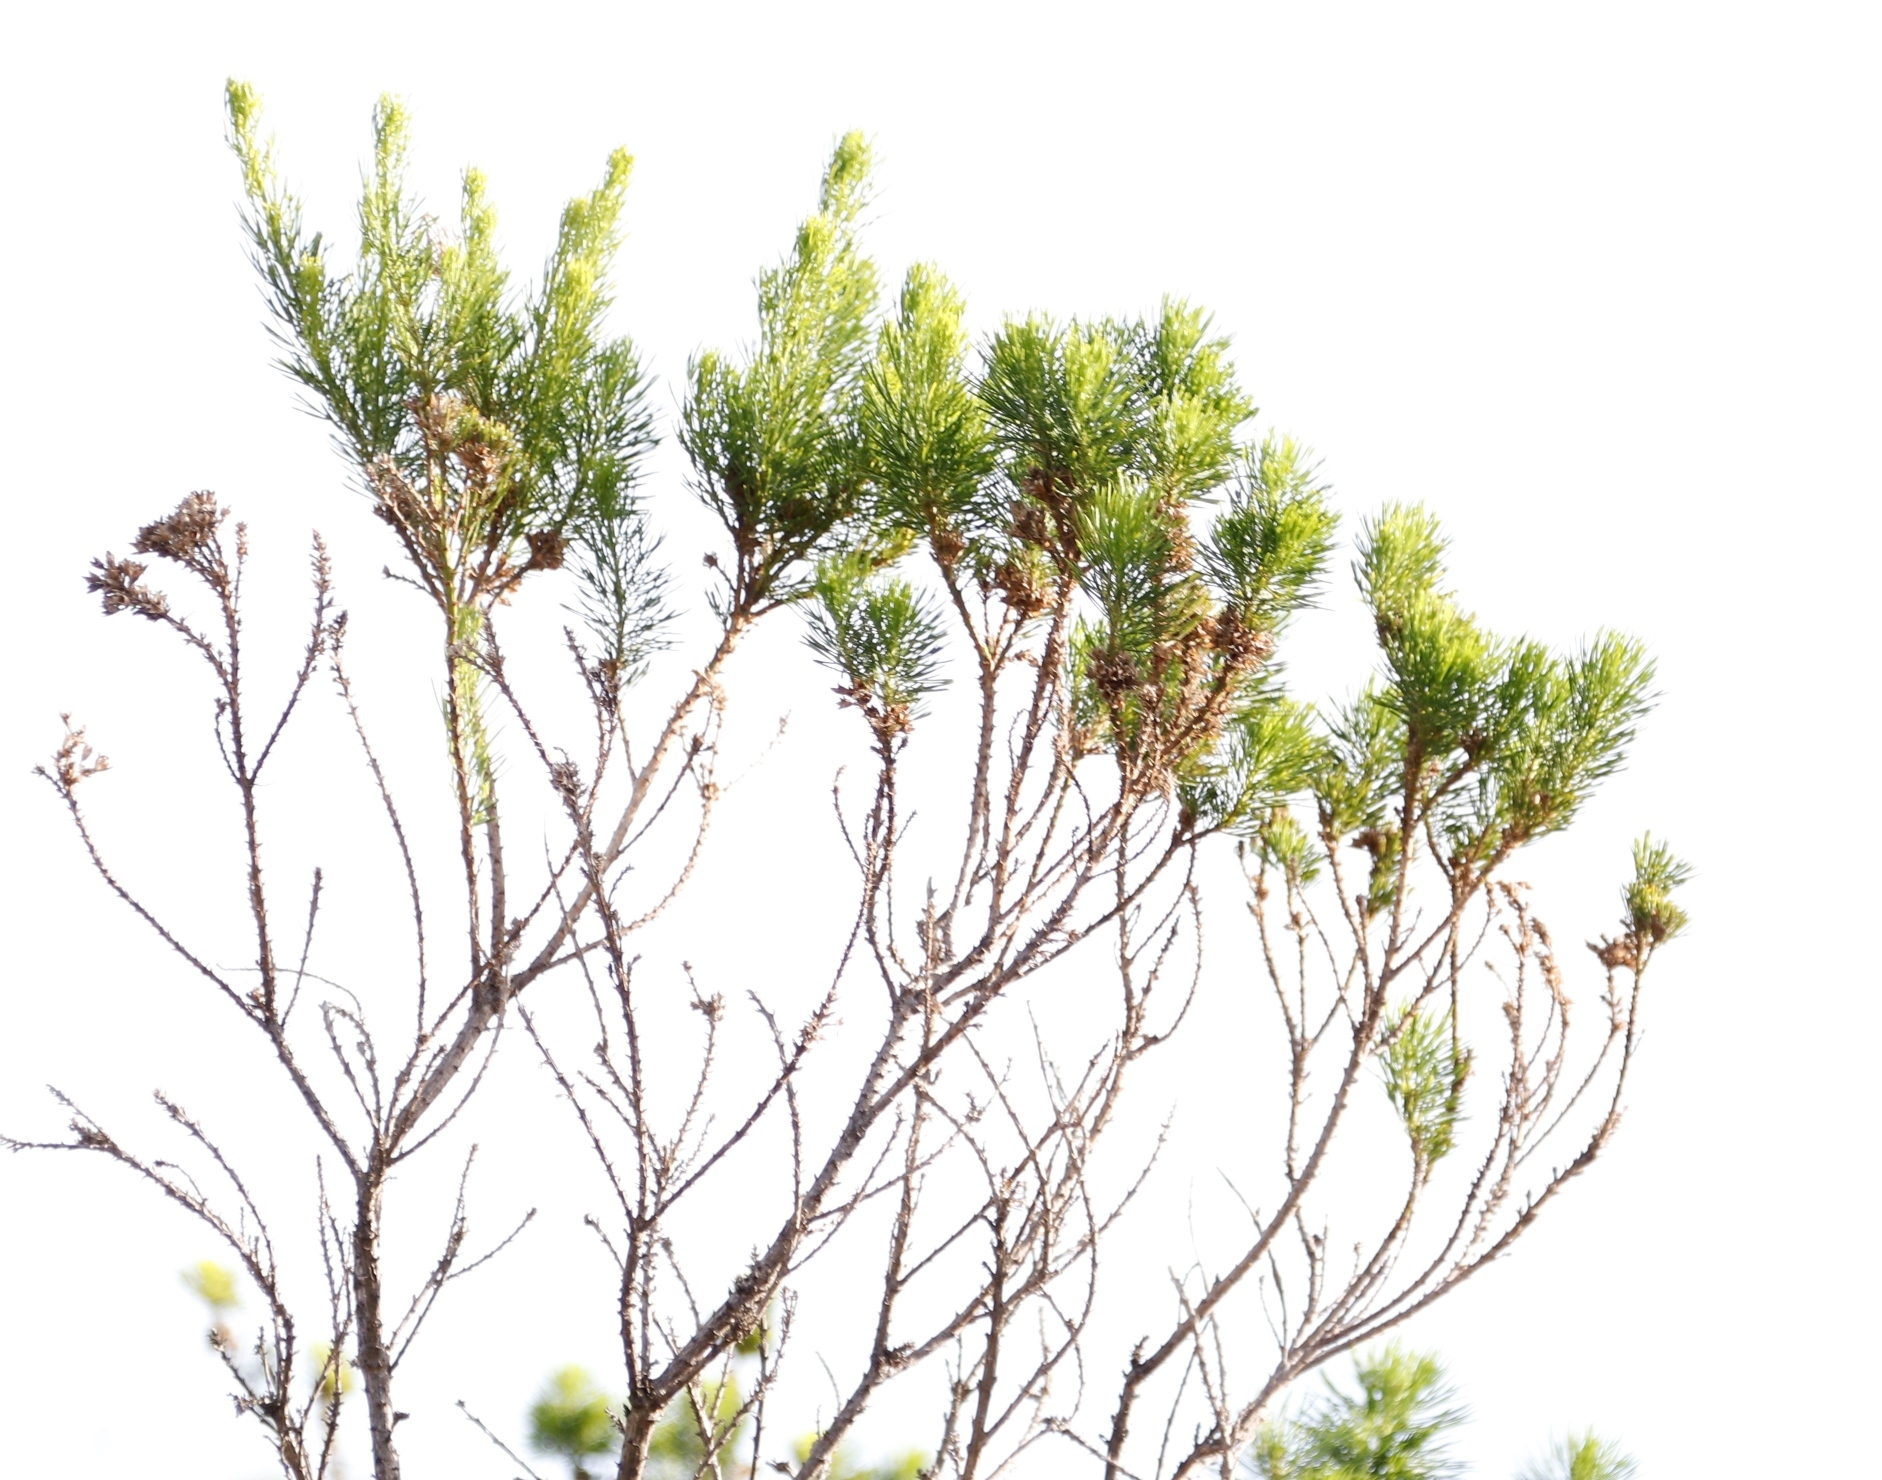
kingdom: Plantae
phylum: Tracheophyta
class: Magnoliopsida
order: Fabales
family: Fabaceae
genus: Psoralea
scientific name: Psoralea pinnata
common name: African scurfpea
